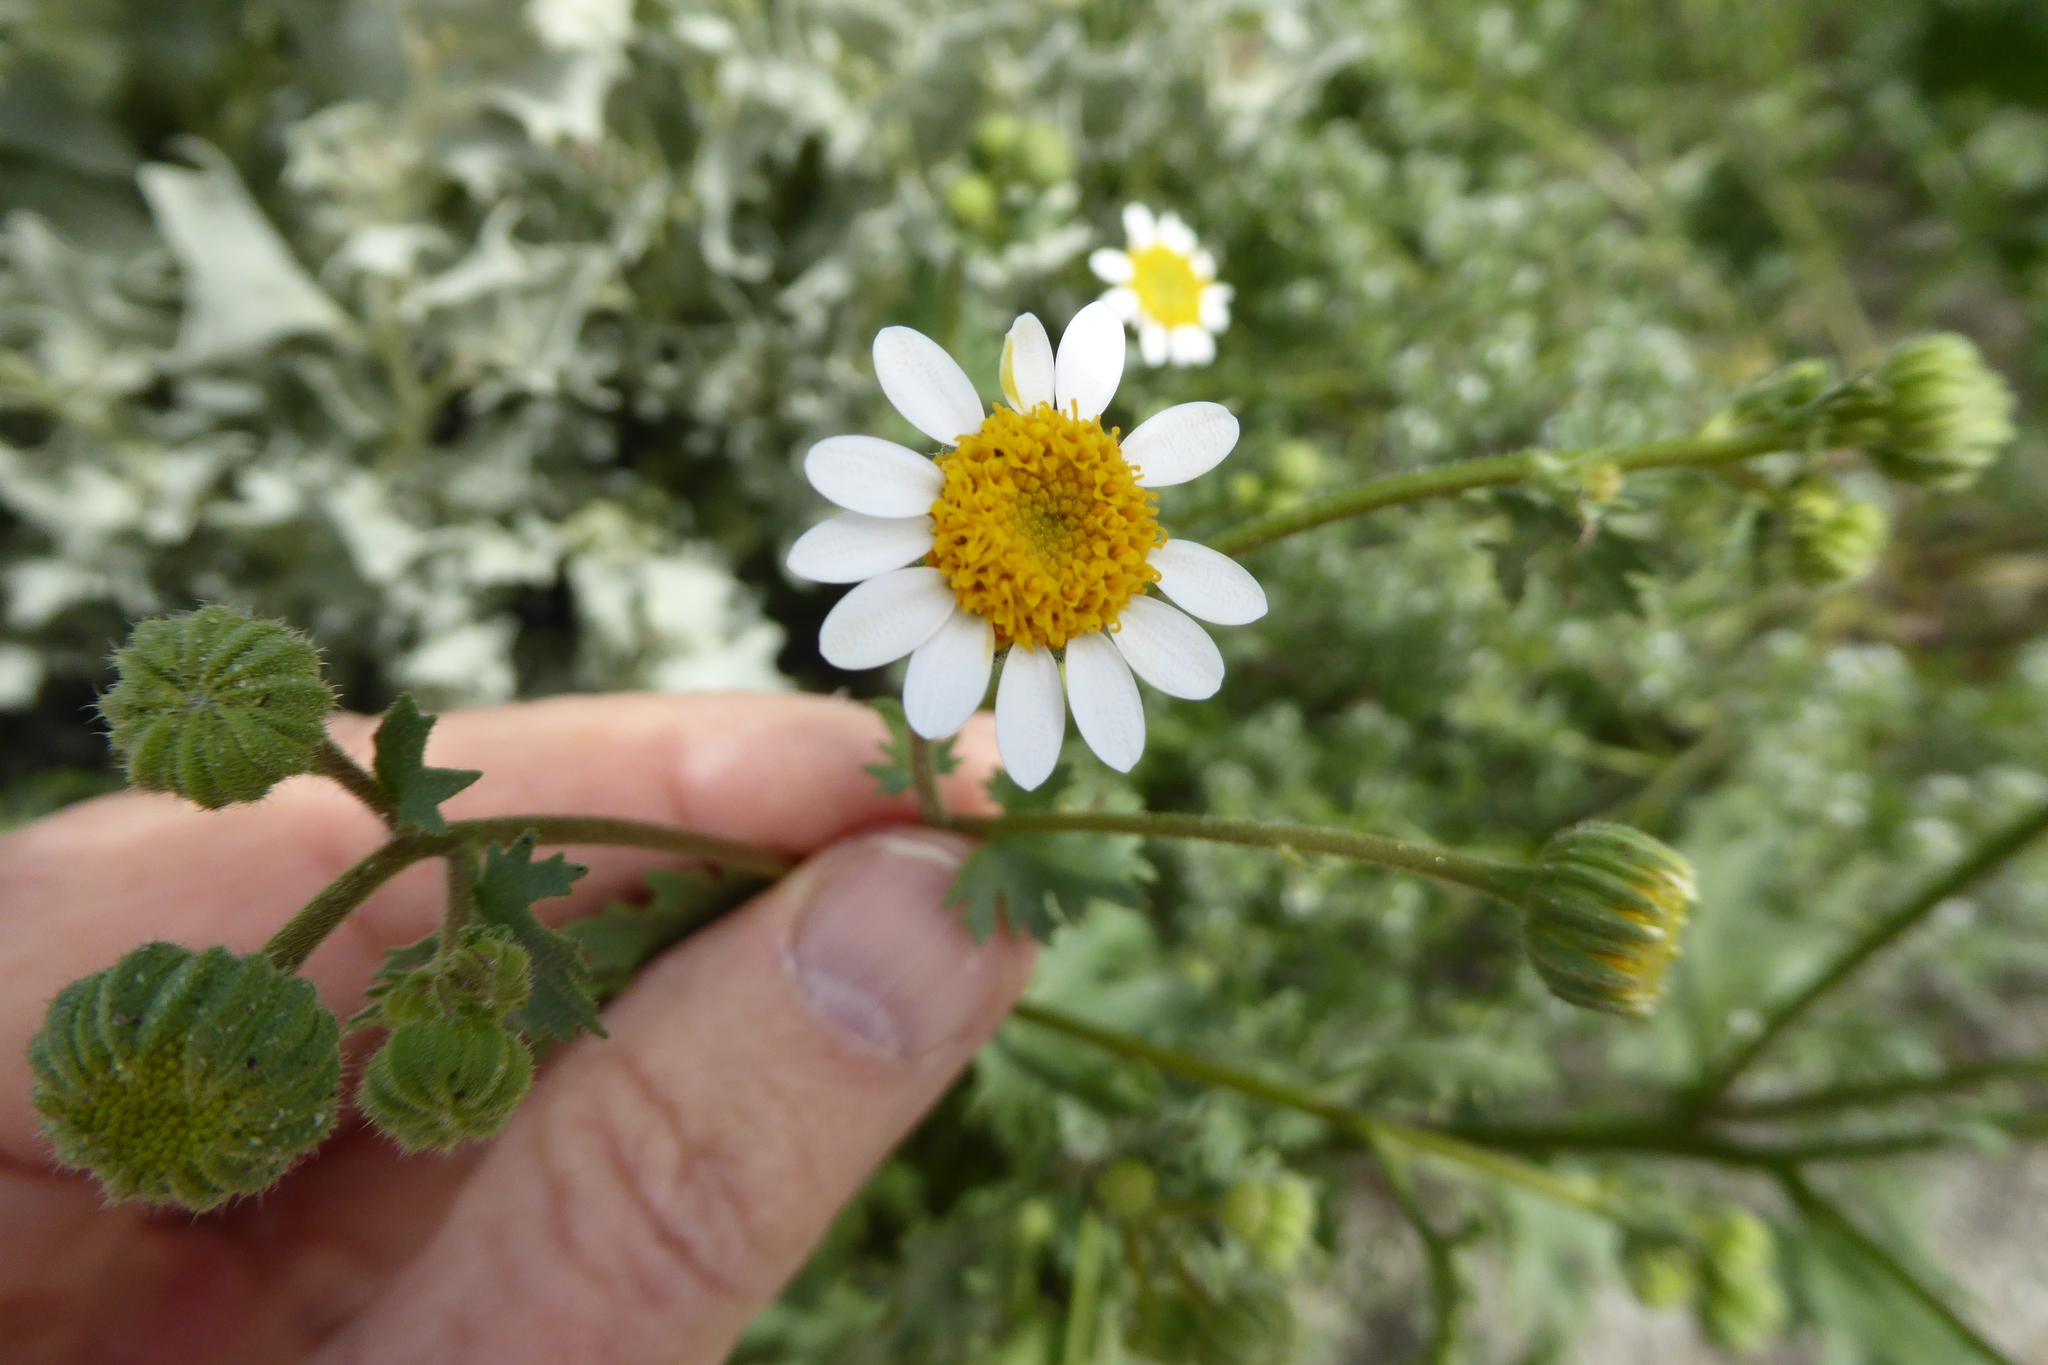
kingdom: Plantae
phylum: Tracheophyta
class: Magnoliopsida
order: Asterales
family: Asteraceae
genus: Laphamia
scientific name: Laphamia emoryi
